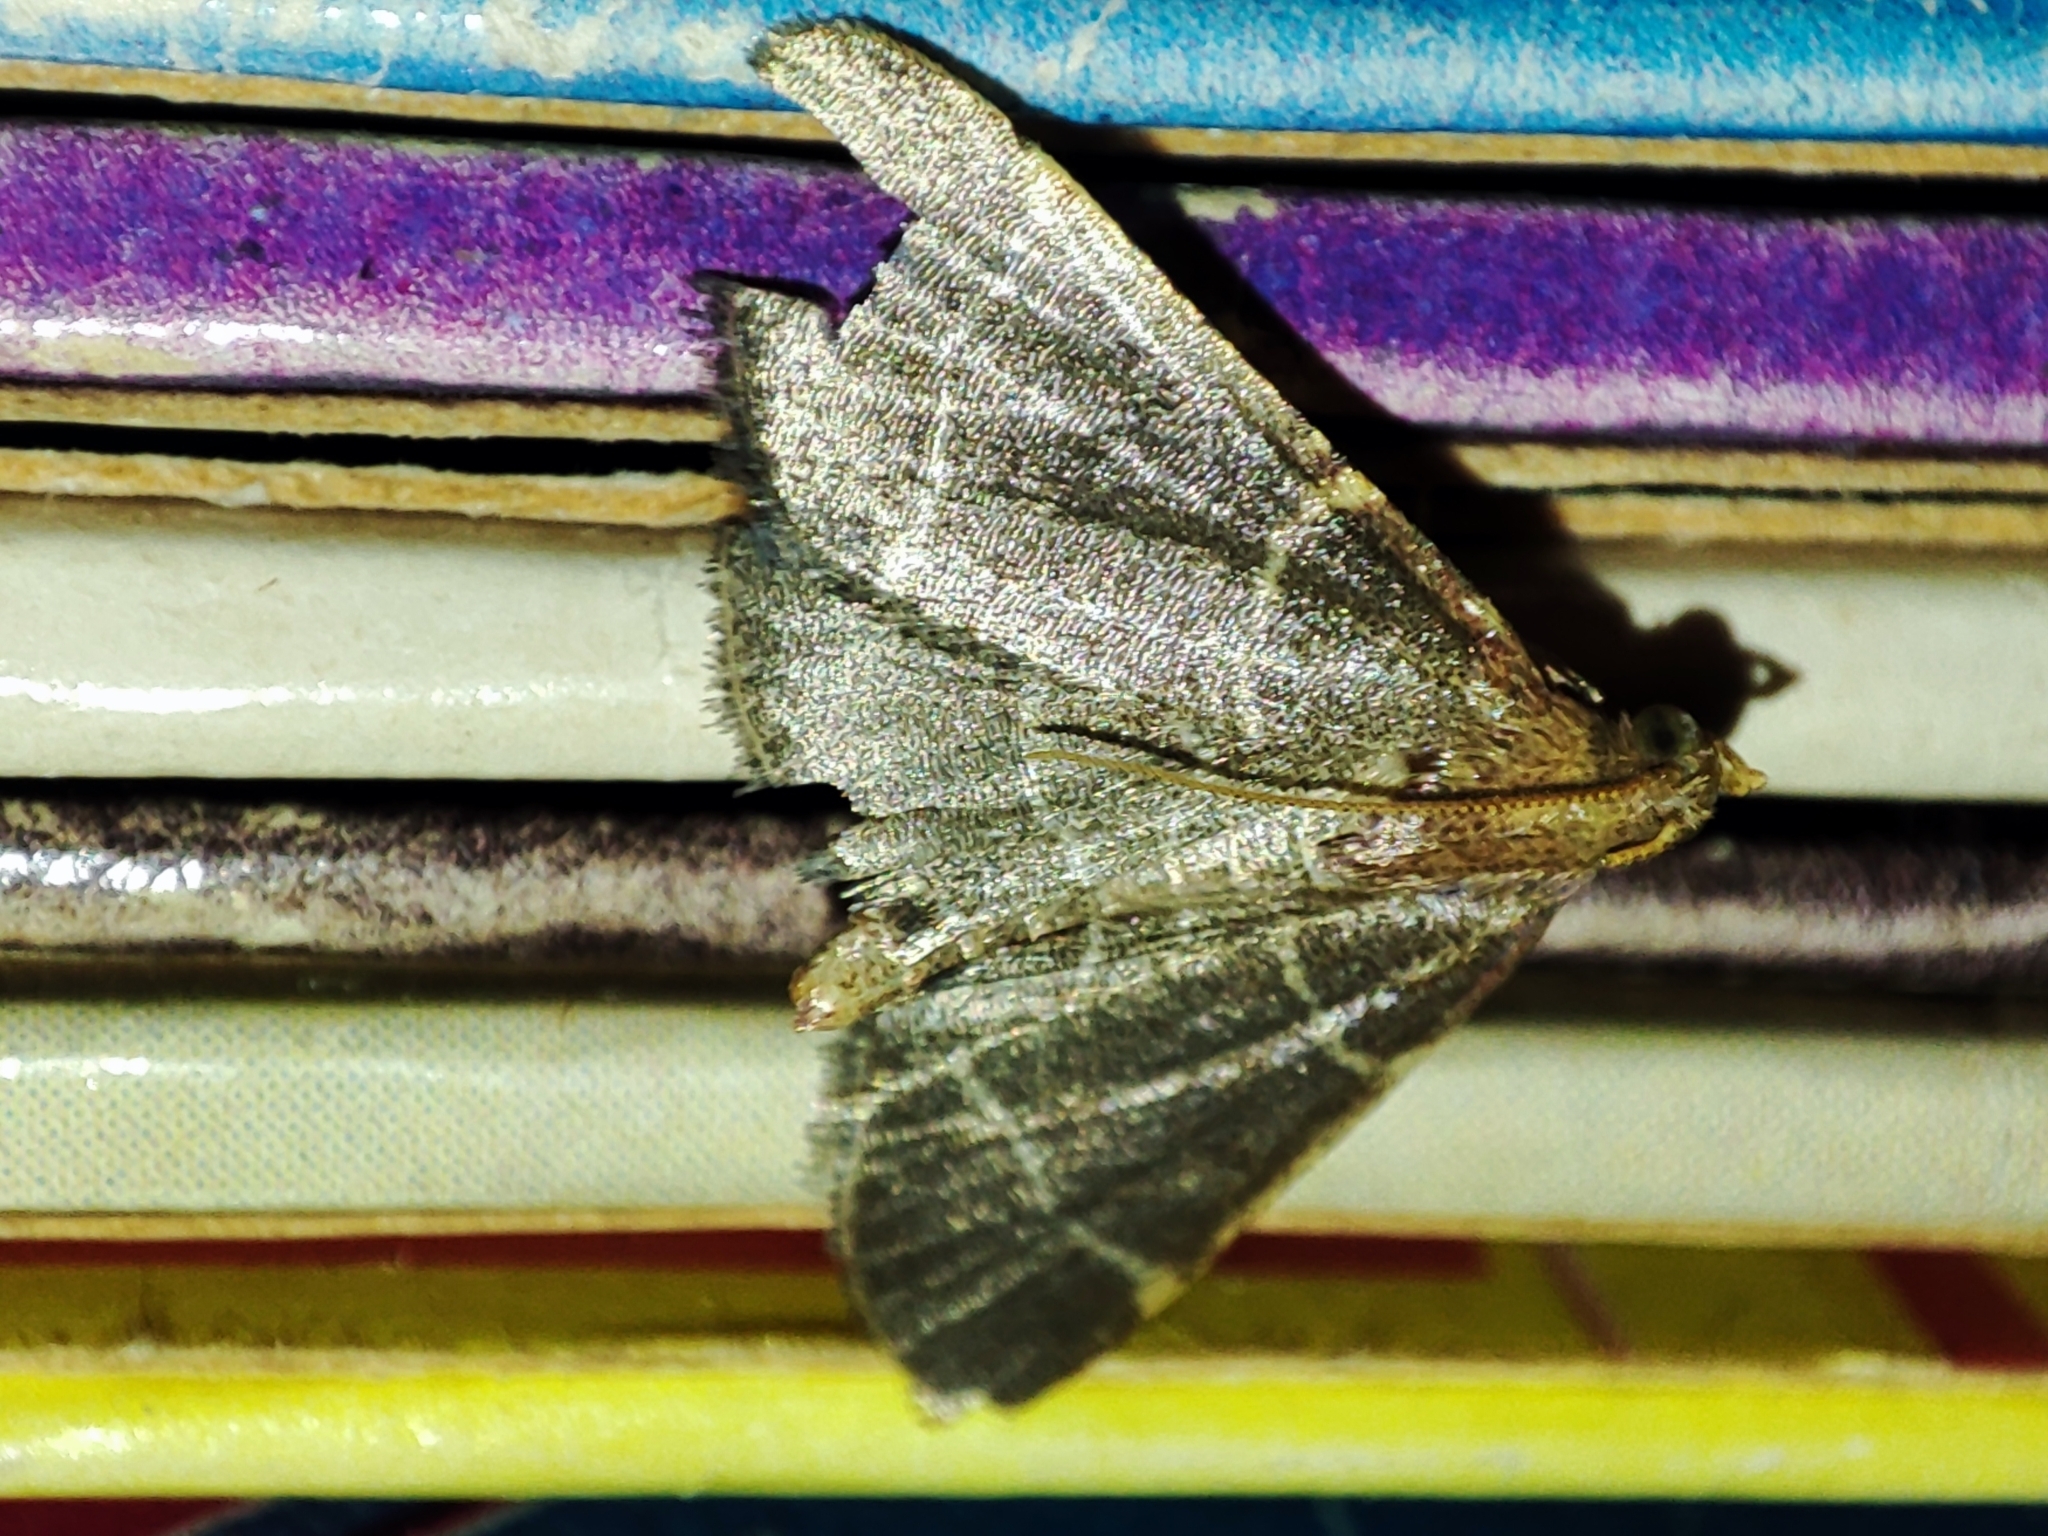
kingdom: Animalia
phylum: Arthropoda
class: Insecta
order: Lepidoptera
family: Pyralidae
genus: Hypsopygia
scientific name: Hypsopygia glaucinalis
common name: Double-striped tabby
